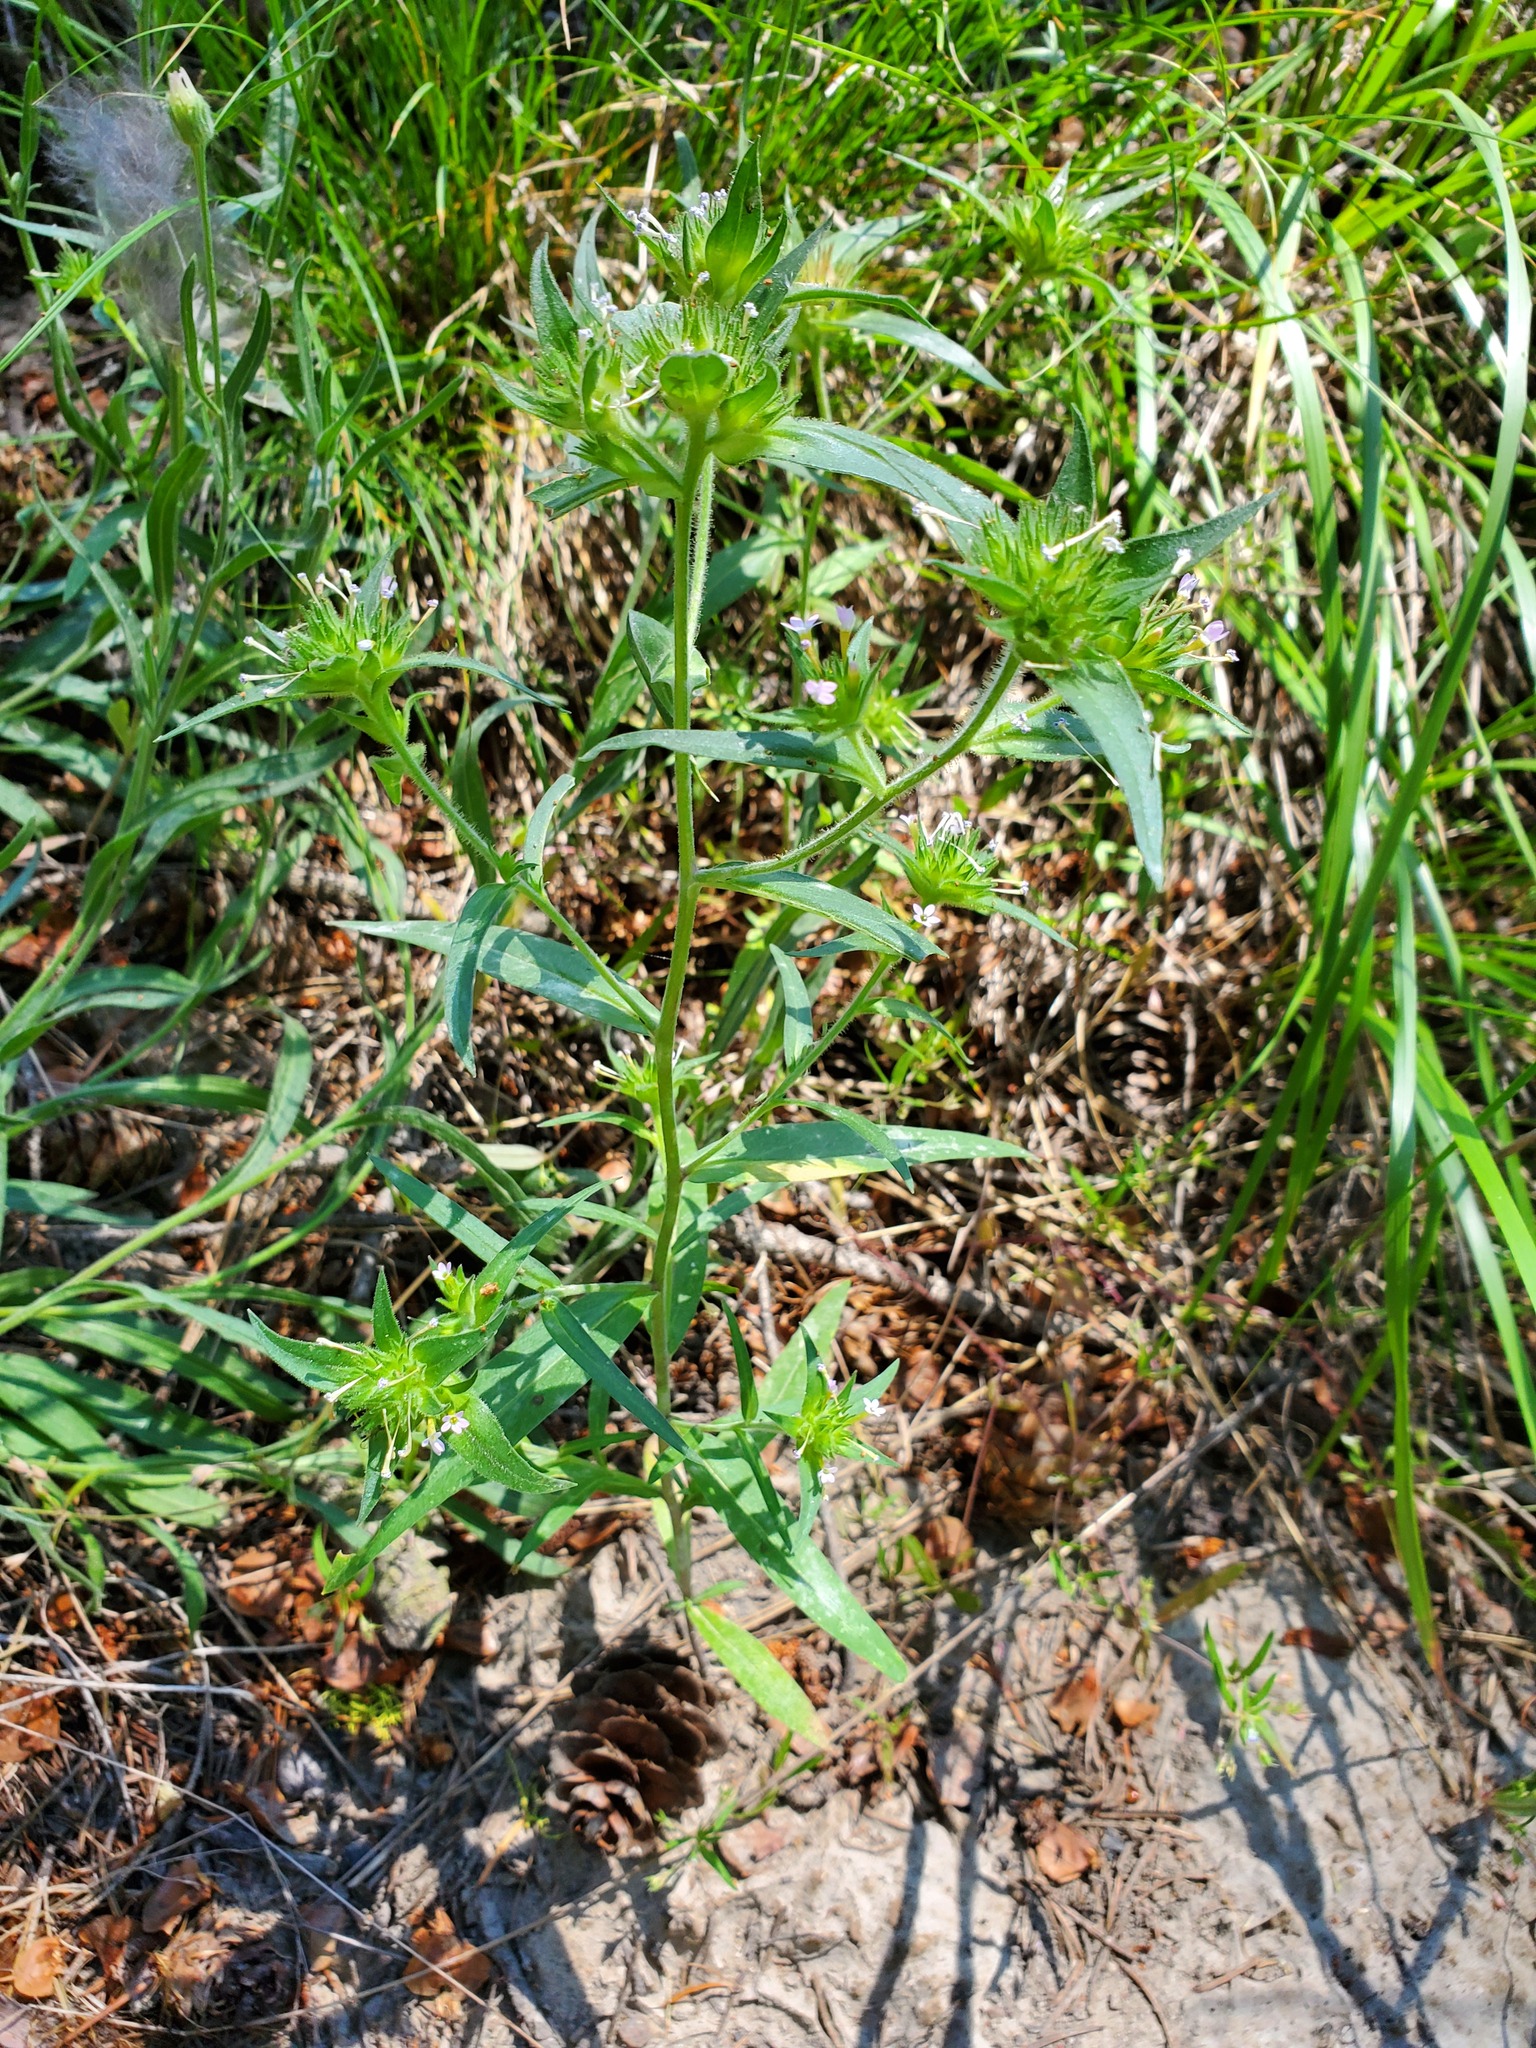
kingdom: Plantae
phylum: Tracheophyta
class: Magnoliopsida
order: Ericales
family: Polemoniaceae
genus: Collomia
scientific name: Collomia linearis
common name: Tiny trumpet
